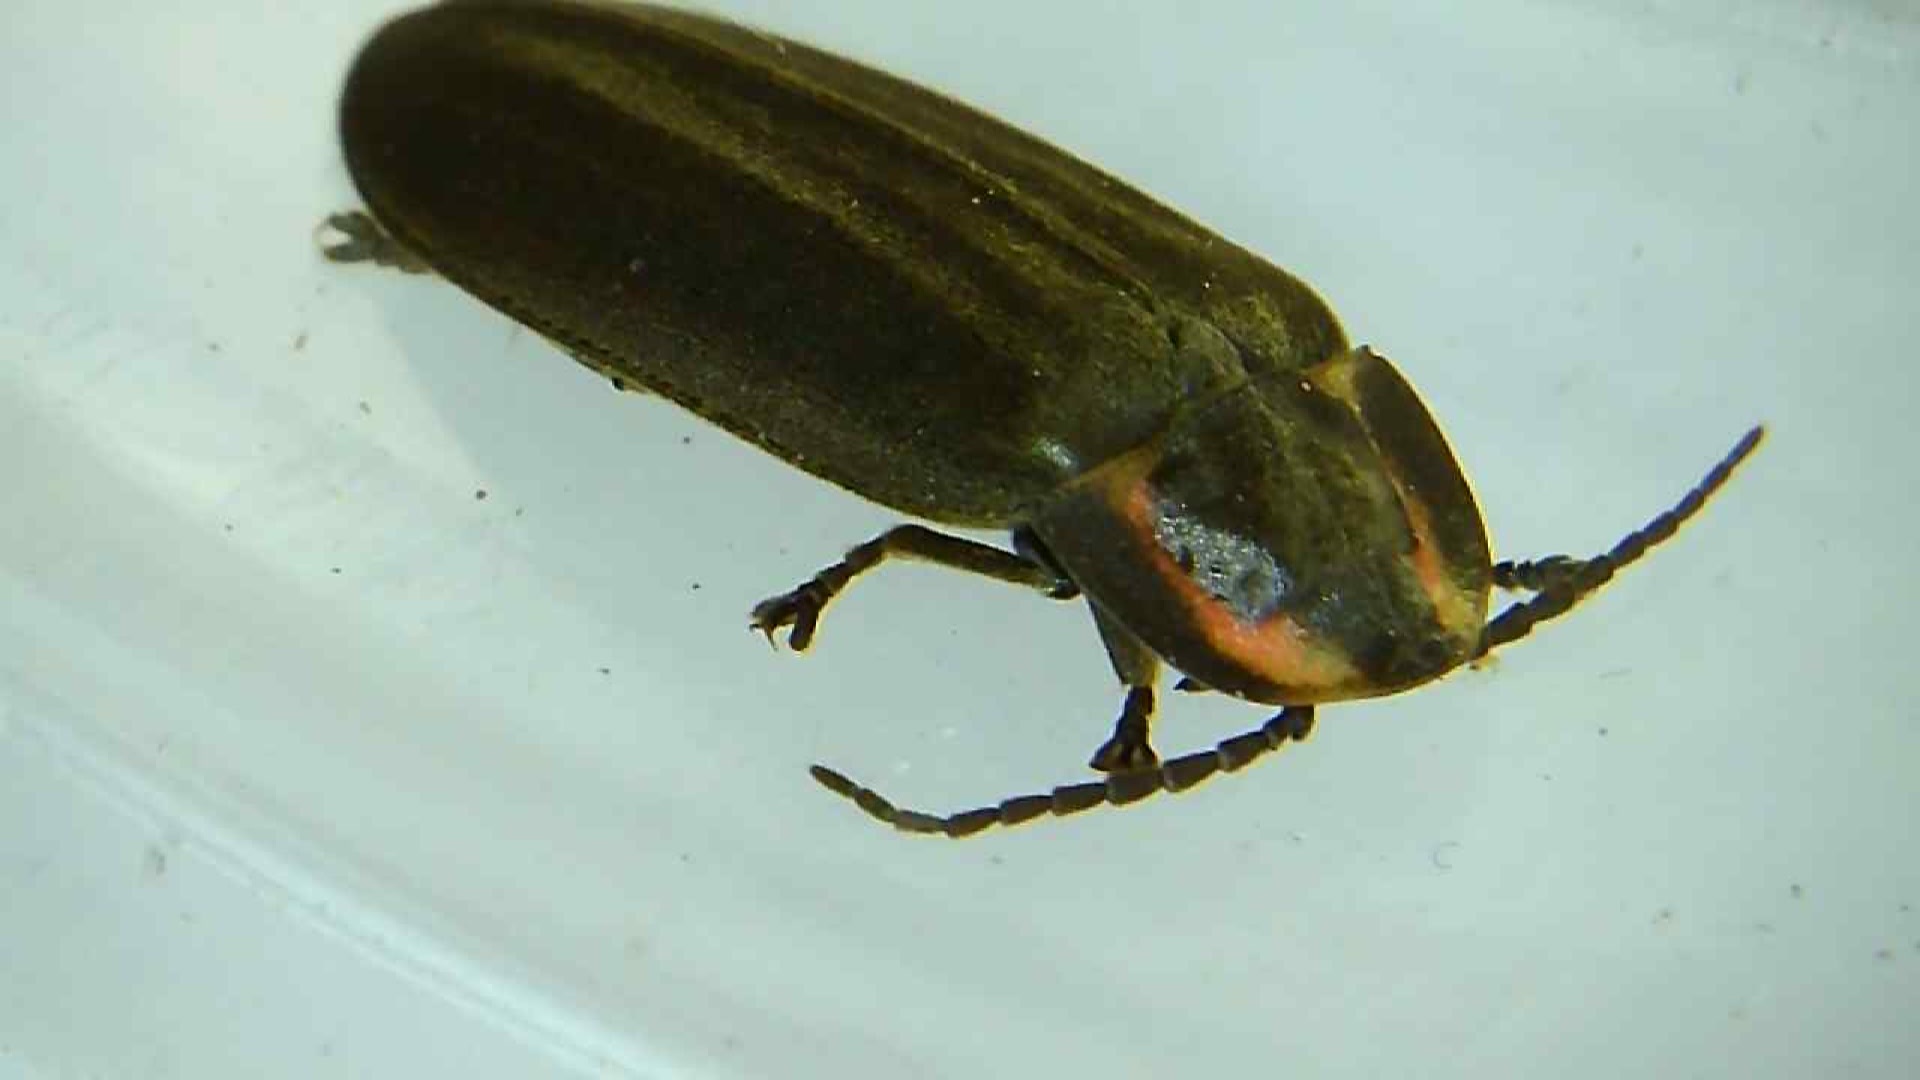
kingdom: Animalia
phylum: Arthropoda
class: Insecta
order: Coleoptera
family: Lampyridae
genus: Photinus
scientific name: Photinus corrusca
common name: Winter firefly
